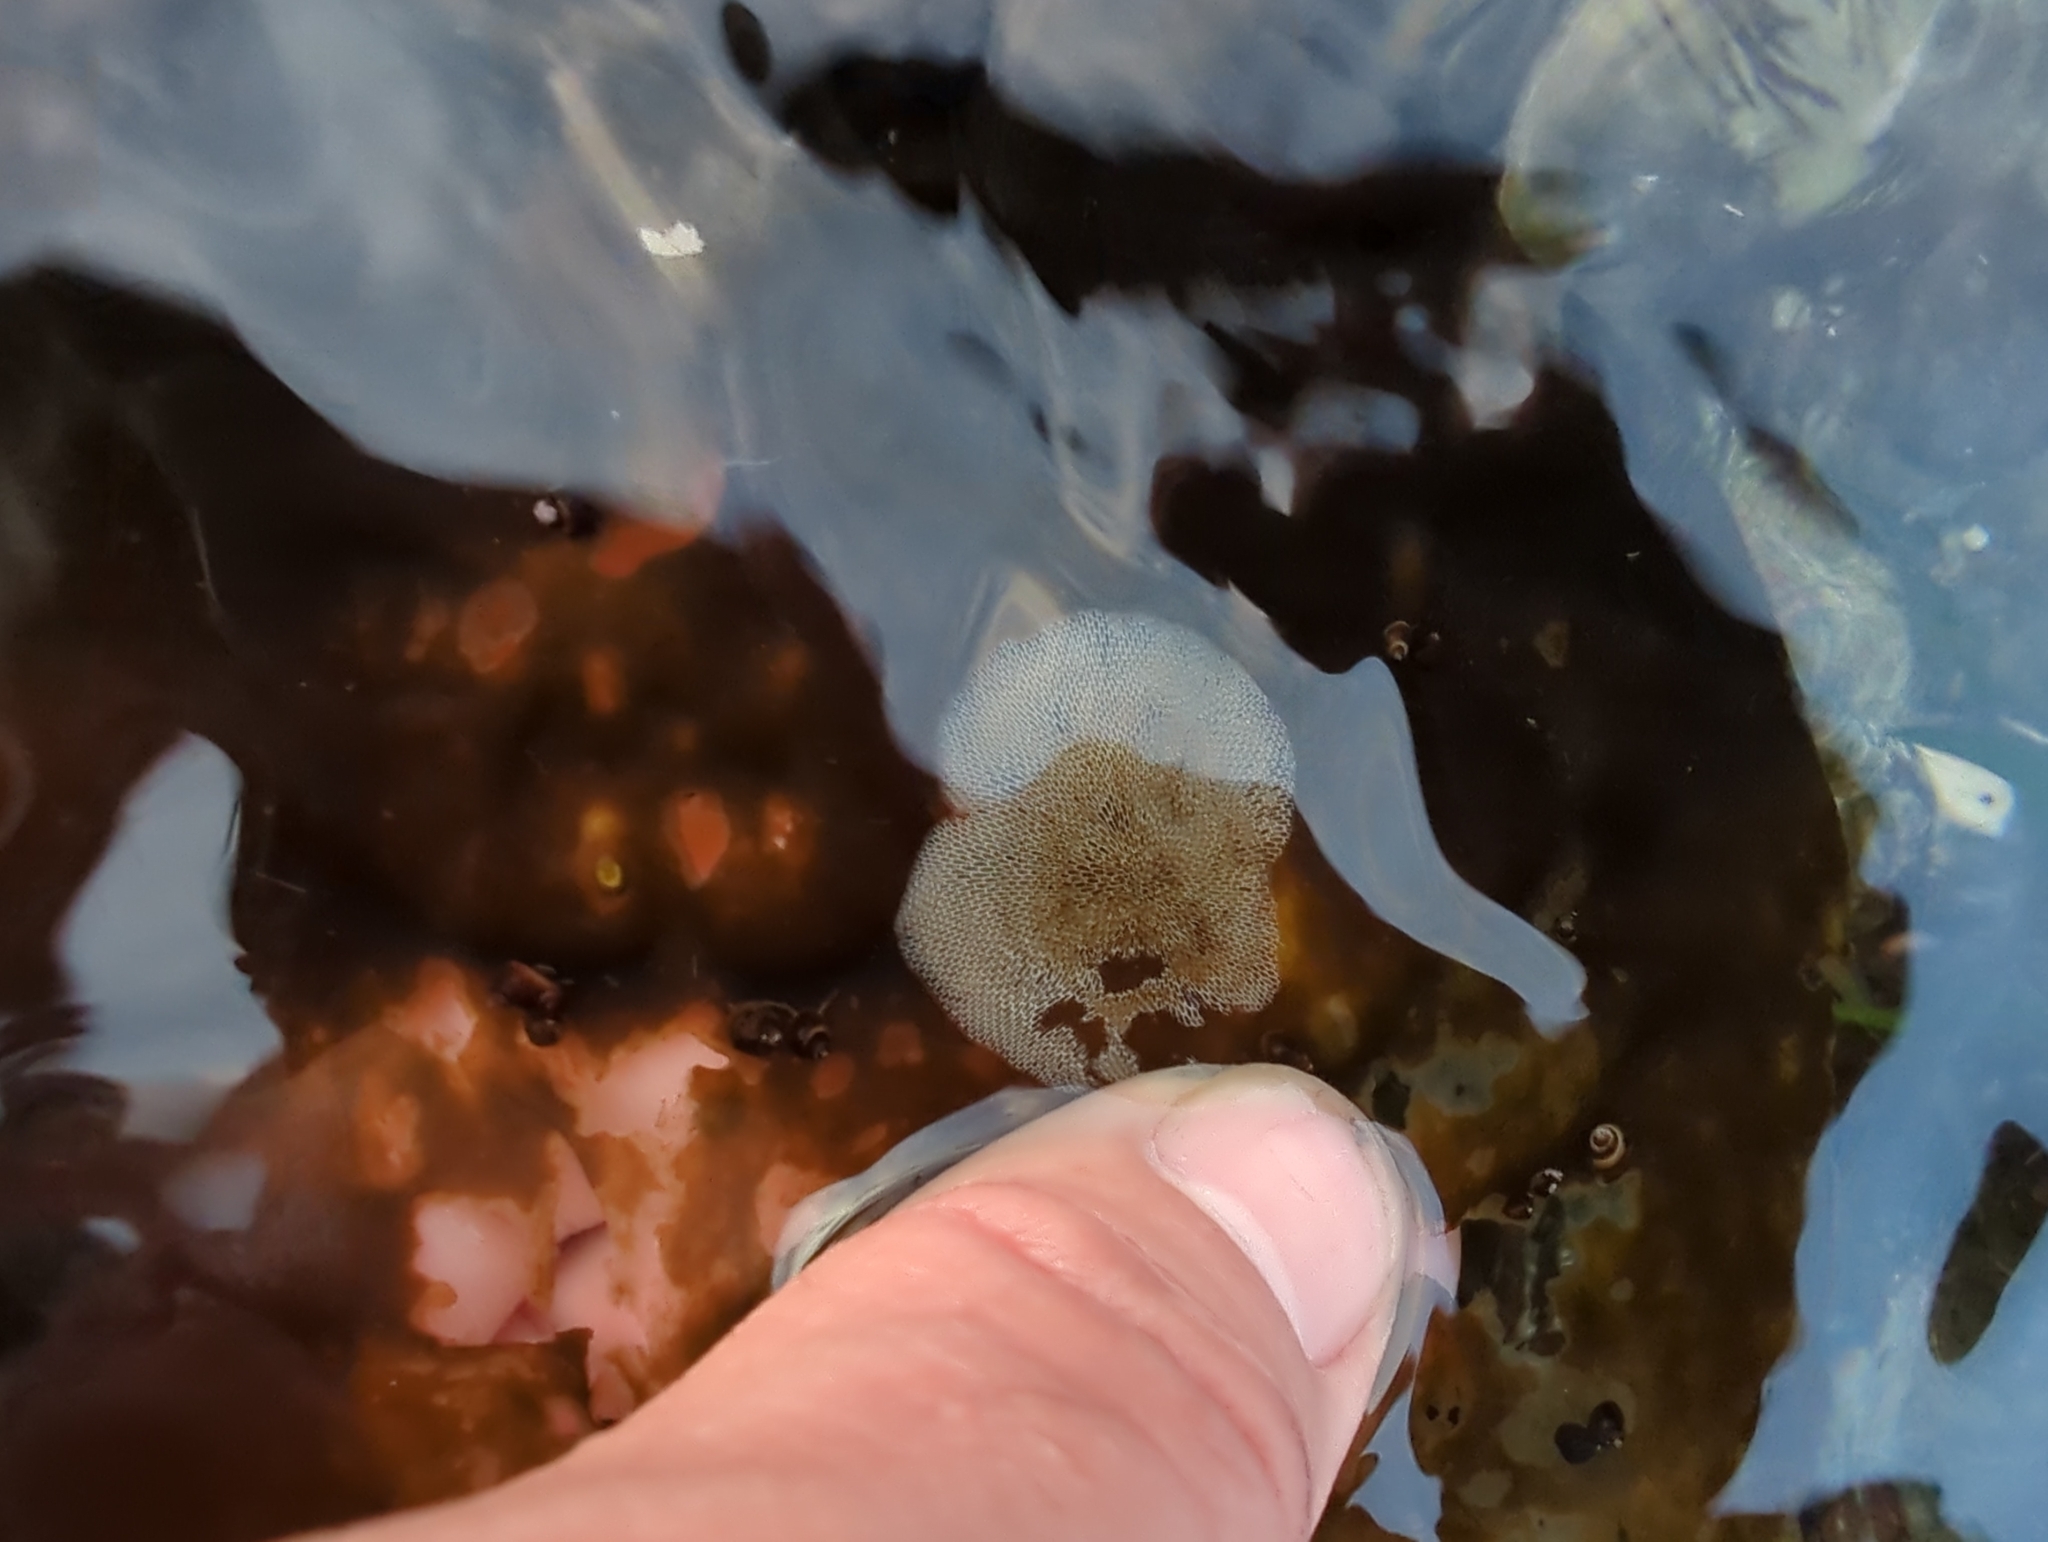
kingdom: Animalia
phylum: Bryozoa
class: Gymnolaemata
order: Cheilostomatida
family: Membraniporidae
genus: Membranipora
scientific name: Membranipora villosa
